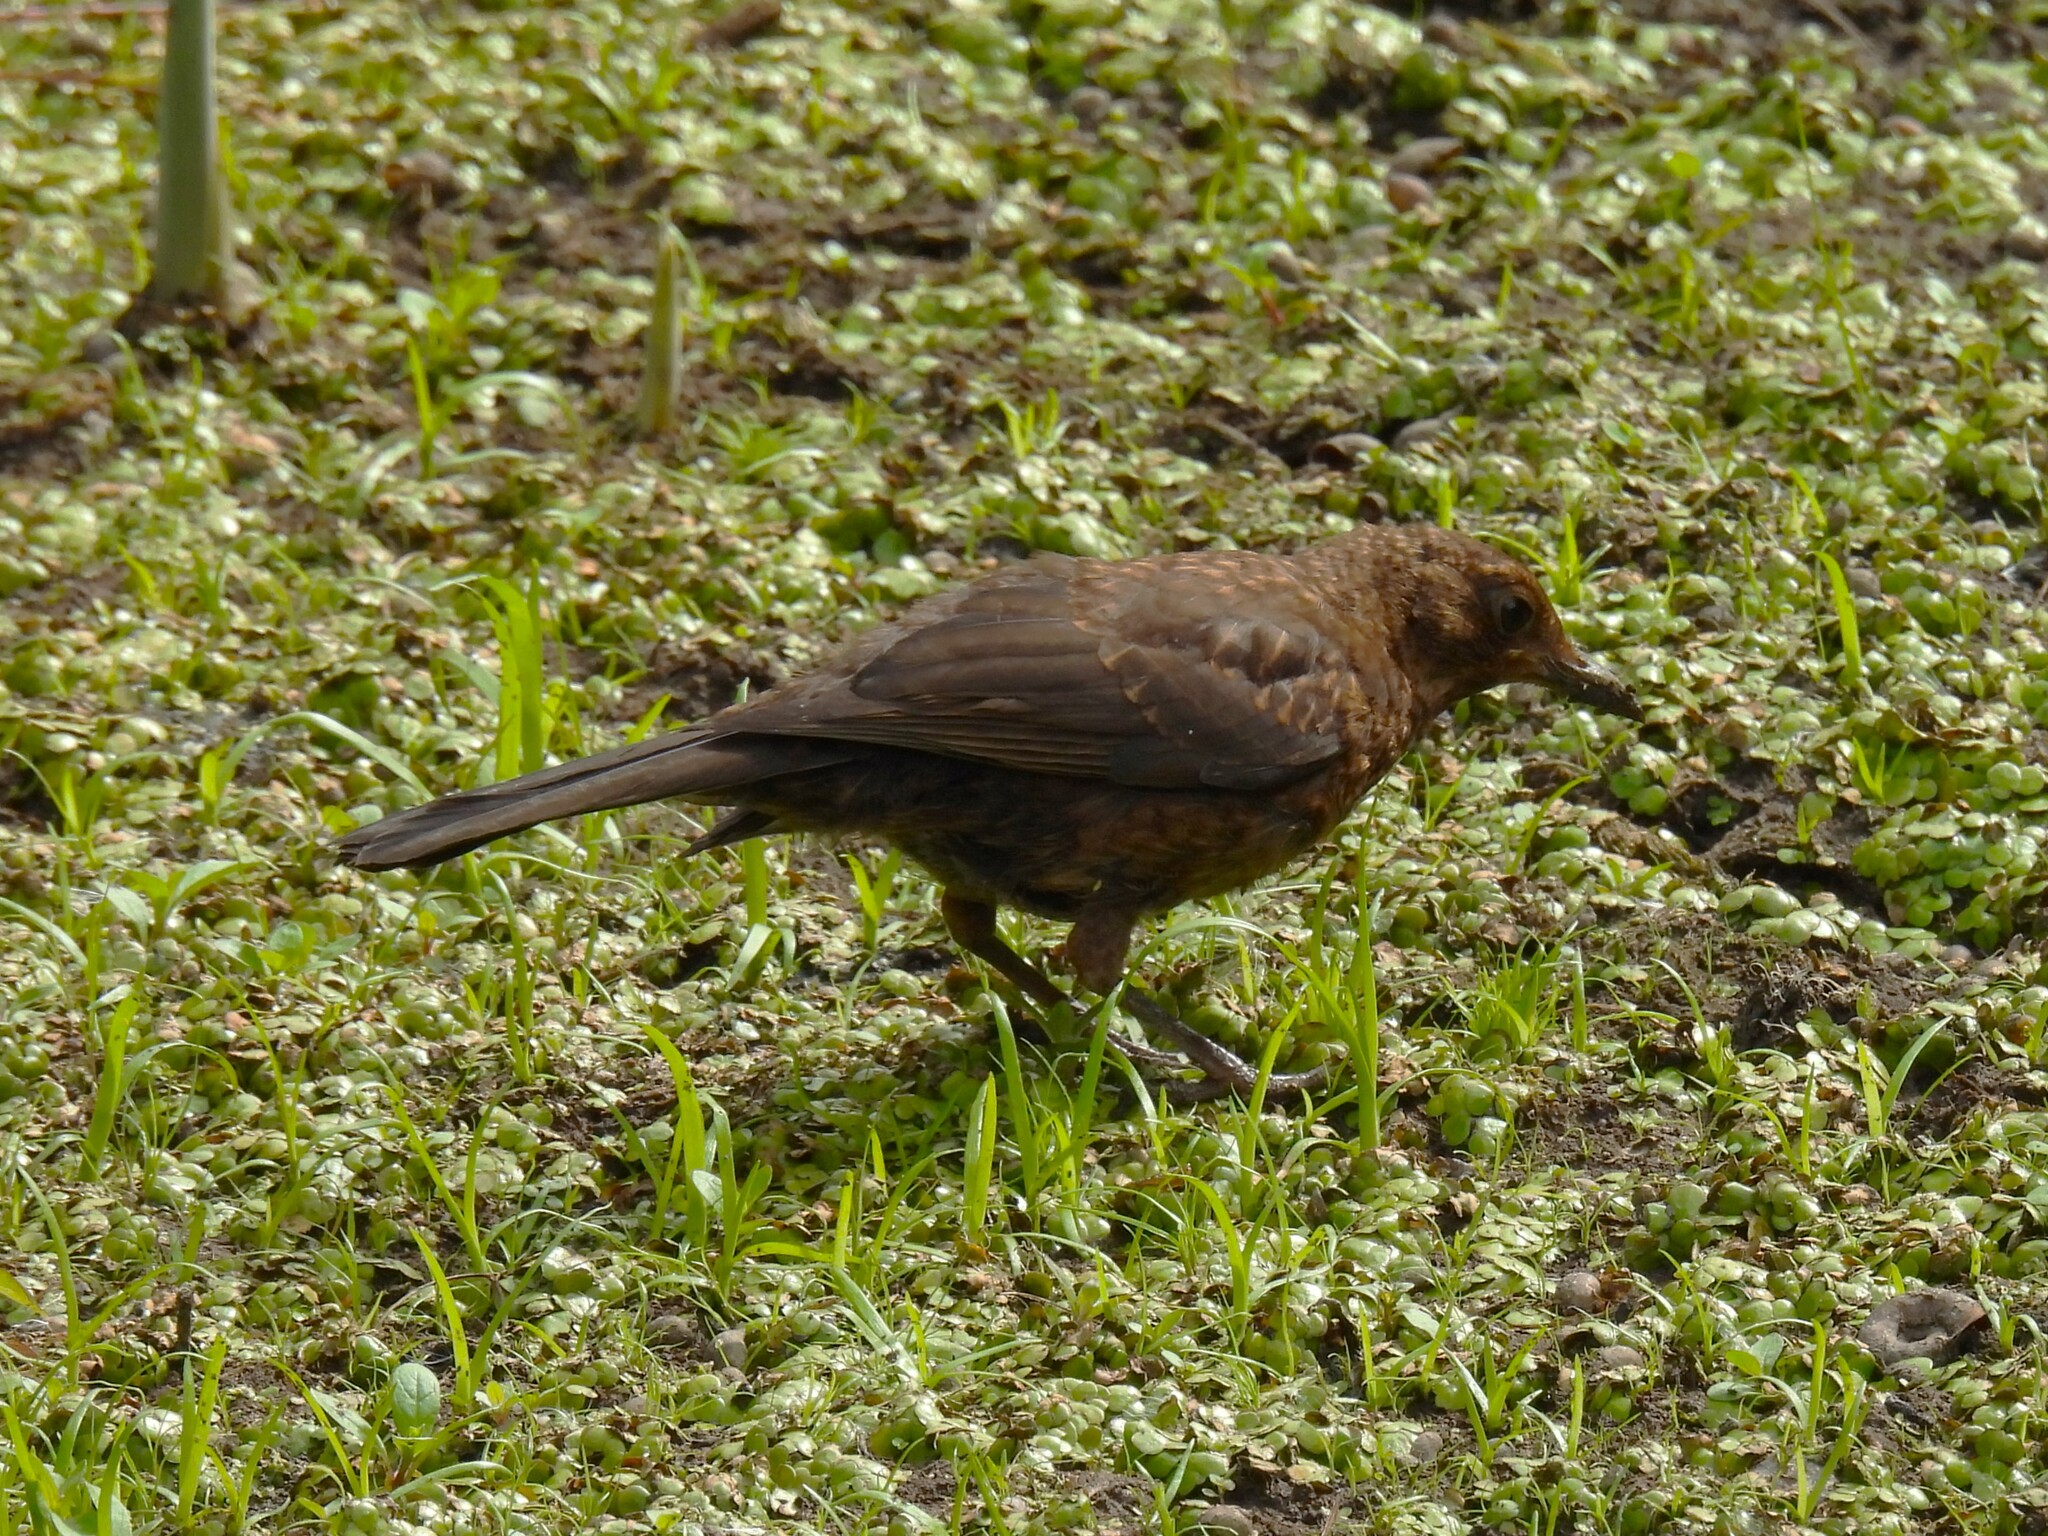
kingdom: Animalia
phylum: Chordata
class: Aves
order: Passeriformes
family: Turdidae
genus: Turdus
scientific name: Turdus merula
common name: Common blackbird
